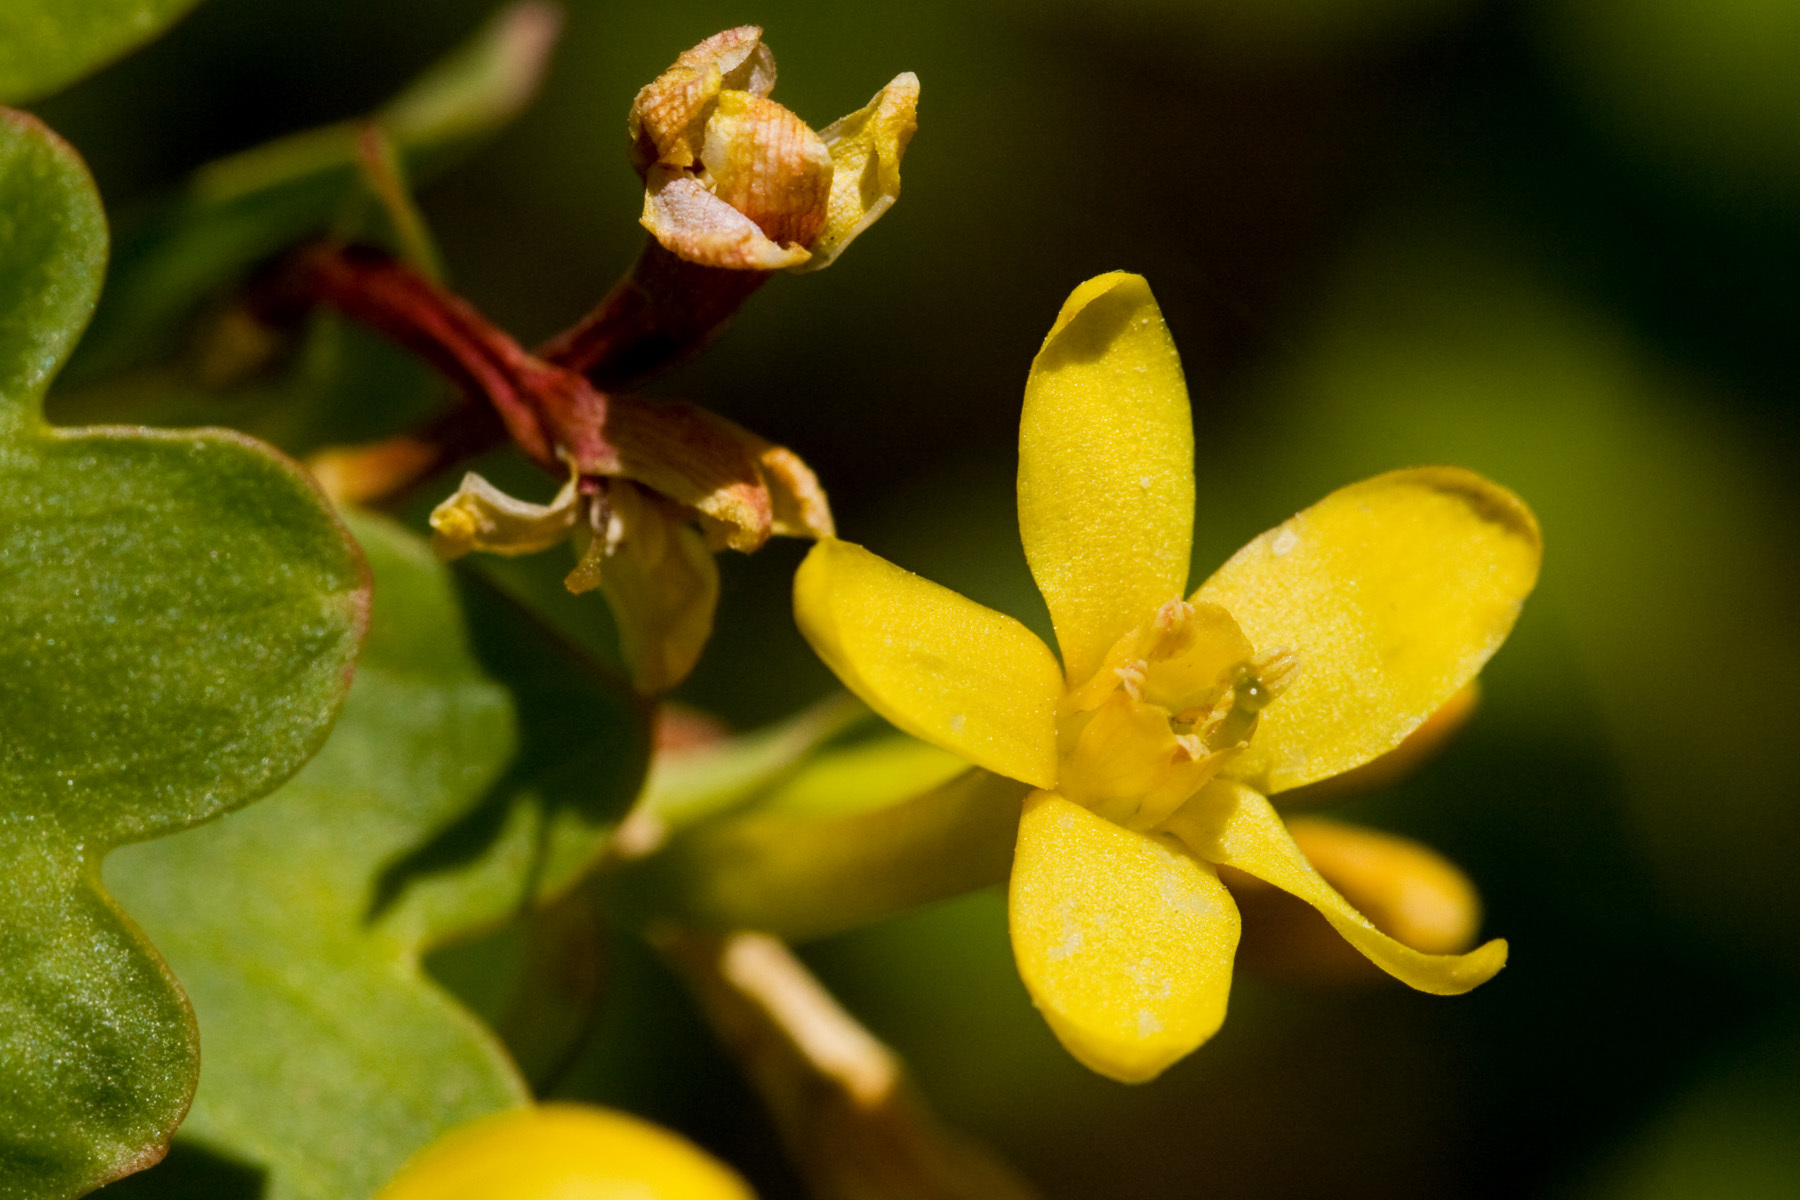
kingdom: Plantae
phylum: Tracheophyta
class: Magnoliopsida
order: Saxifragales
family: Grossulariaceae
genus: Ribes
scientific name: Ribes aureum
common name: Golden currant
